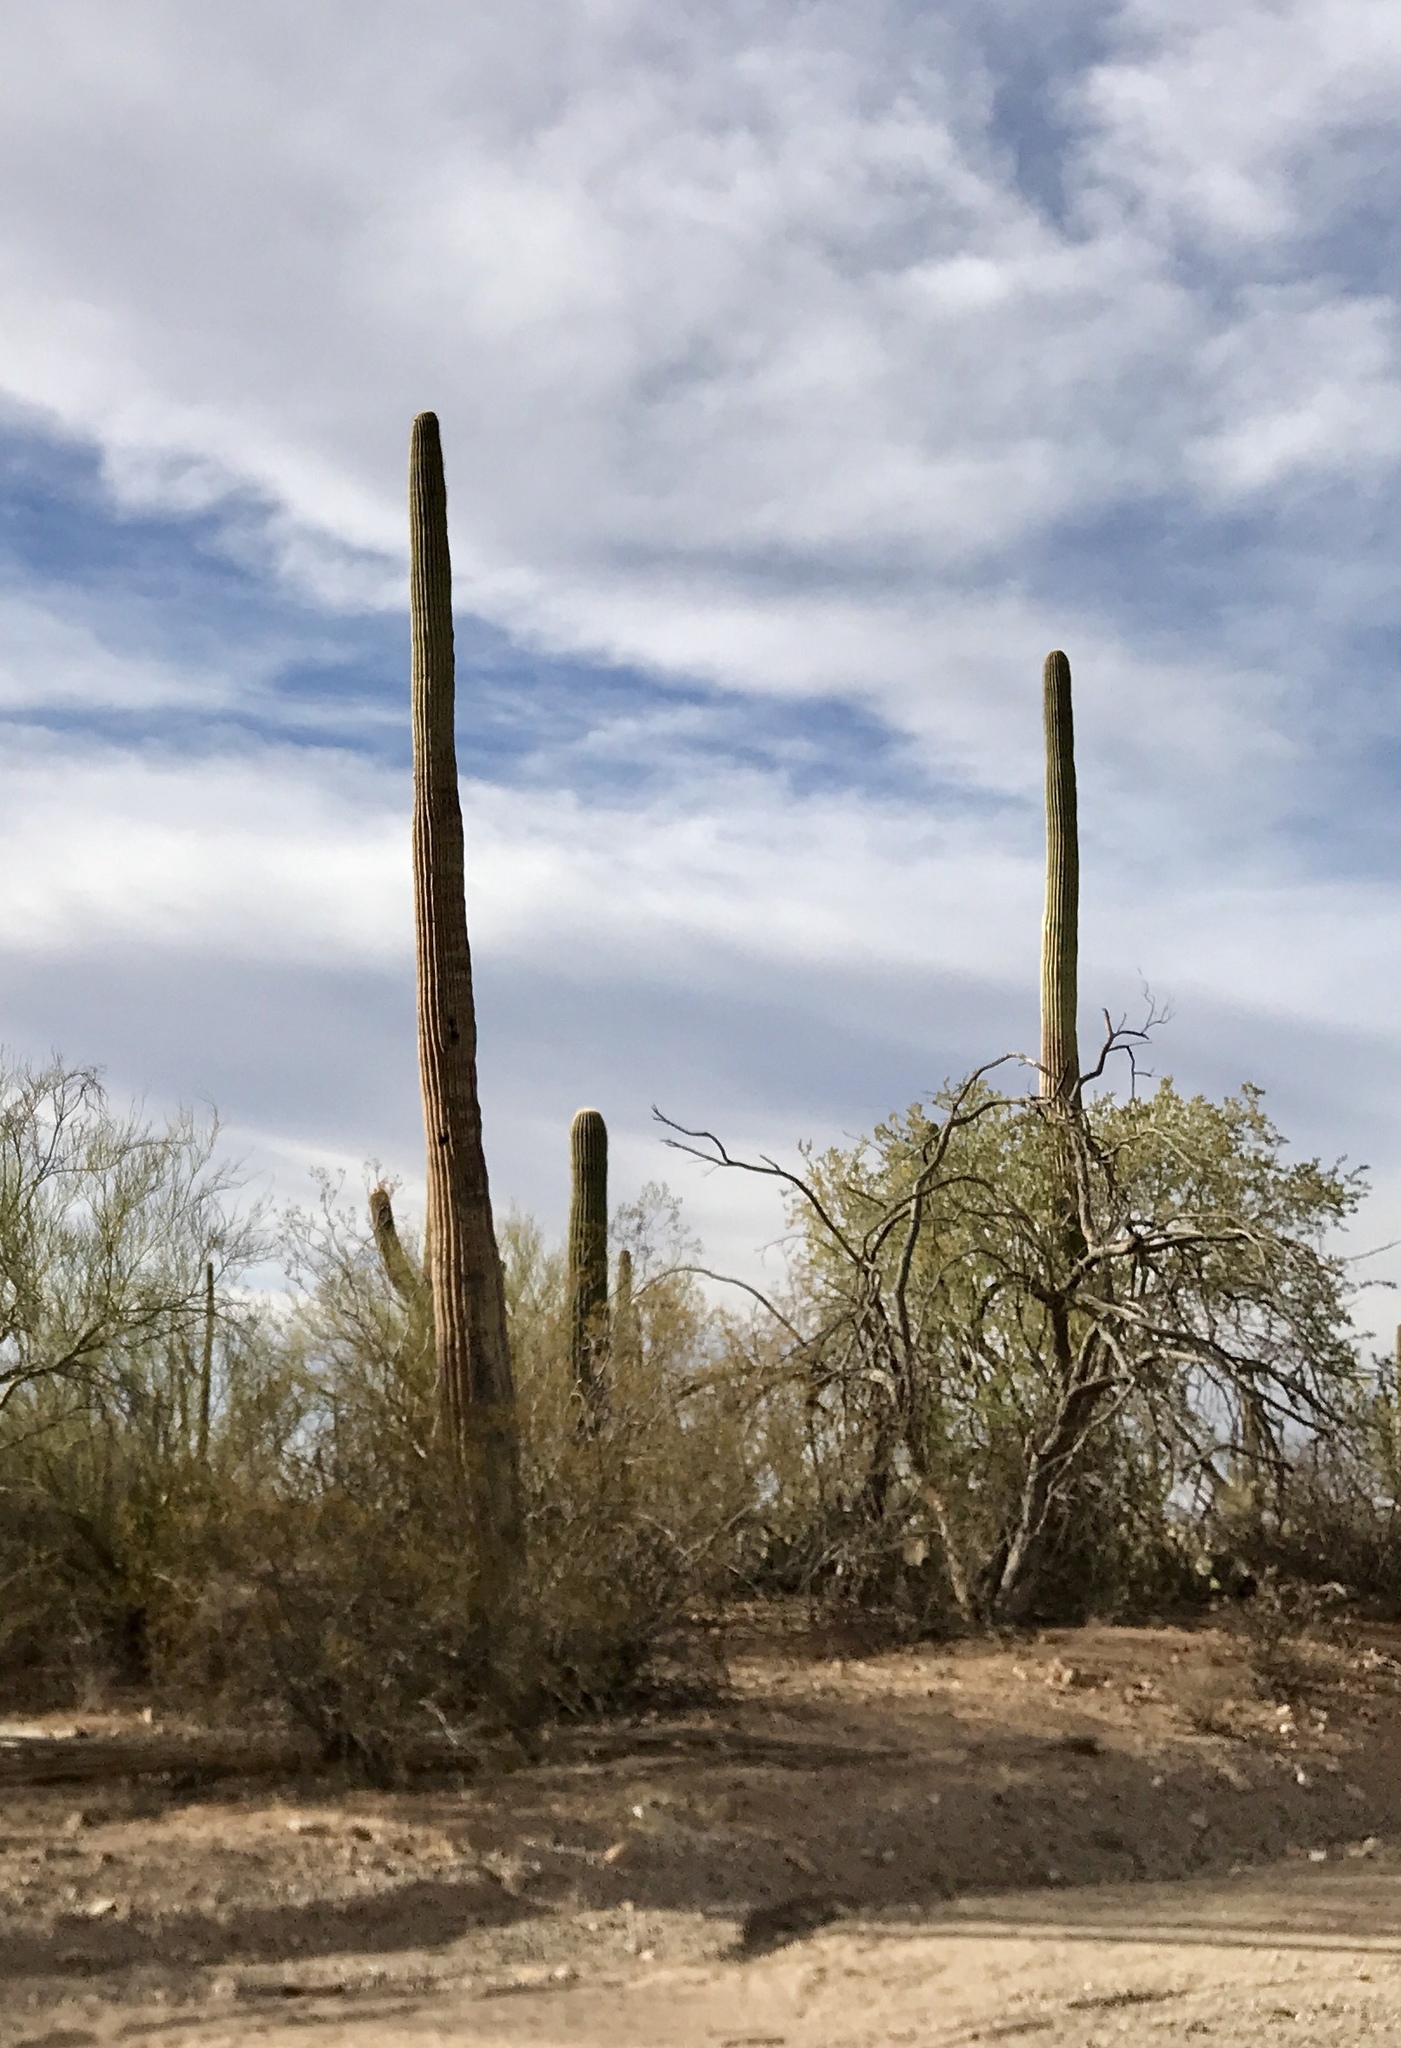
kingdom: Plantae
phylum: Tracheophyta
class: Magnoliopsida
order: Caryophyllales
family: Cactaceae
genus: Carnegiea
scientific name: Carnegiea gigantea
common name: Saguaro
